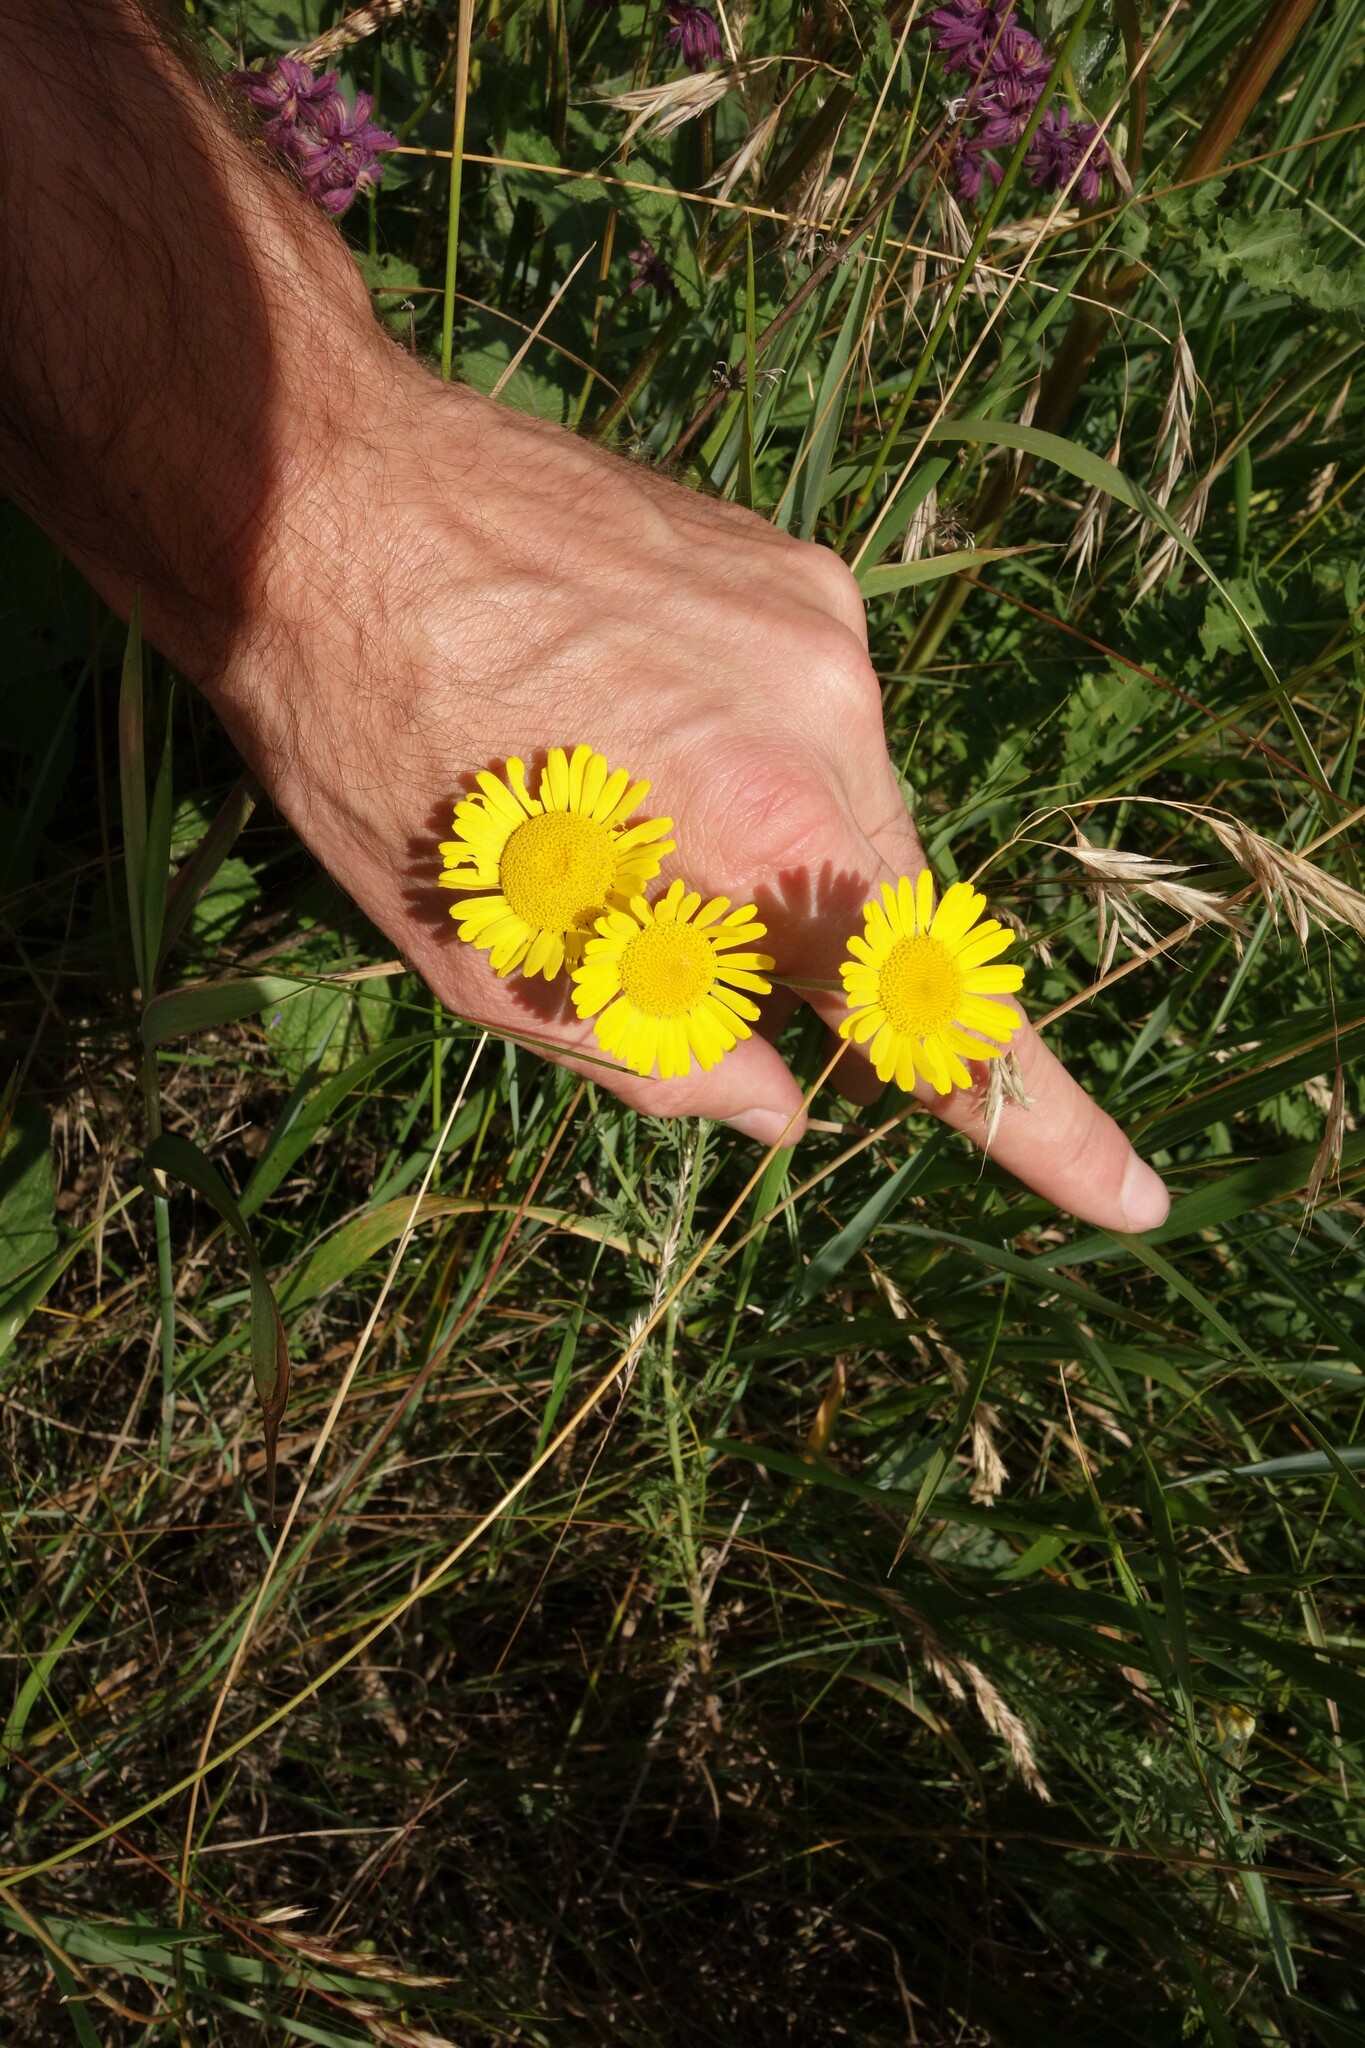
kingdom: Plantae
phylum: Tracheophyta
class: Magnoliopsida
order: Asterales
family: Asteraceae
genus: Cota
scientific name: Cota tinctoria
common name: Golden chamomile
